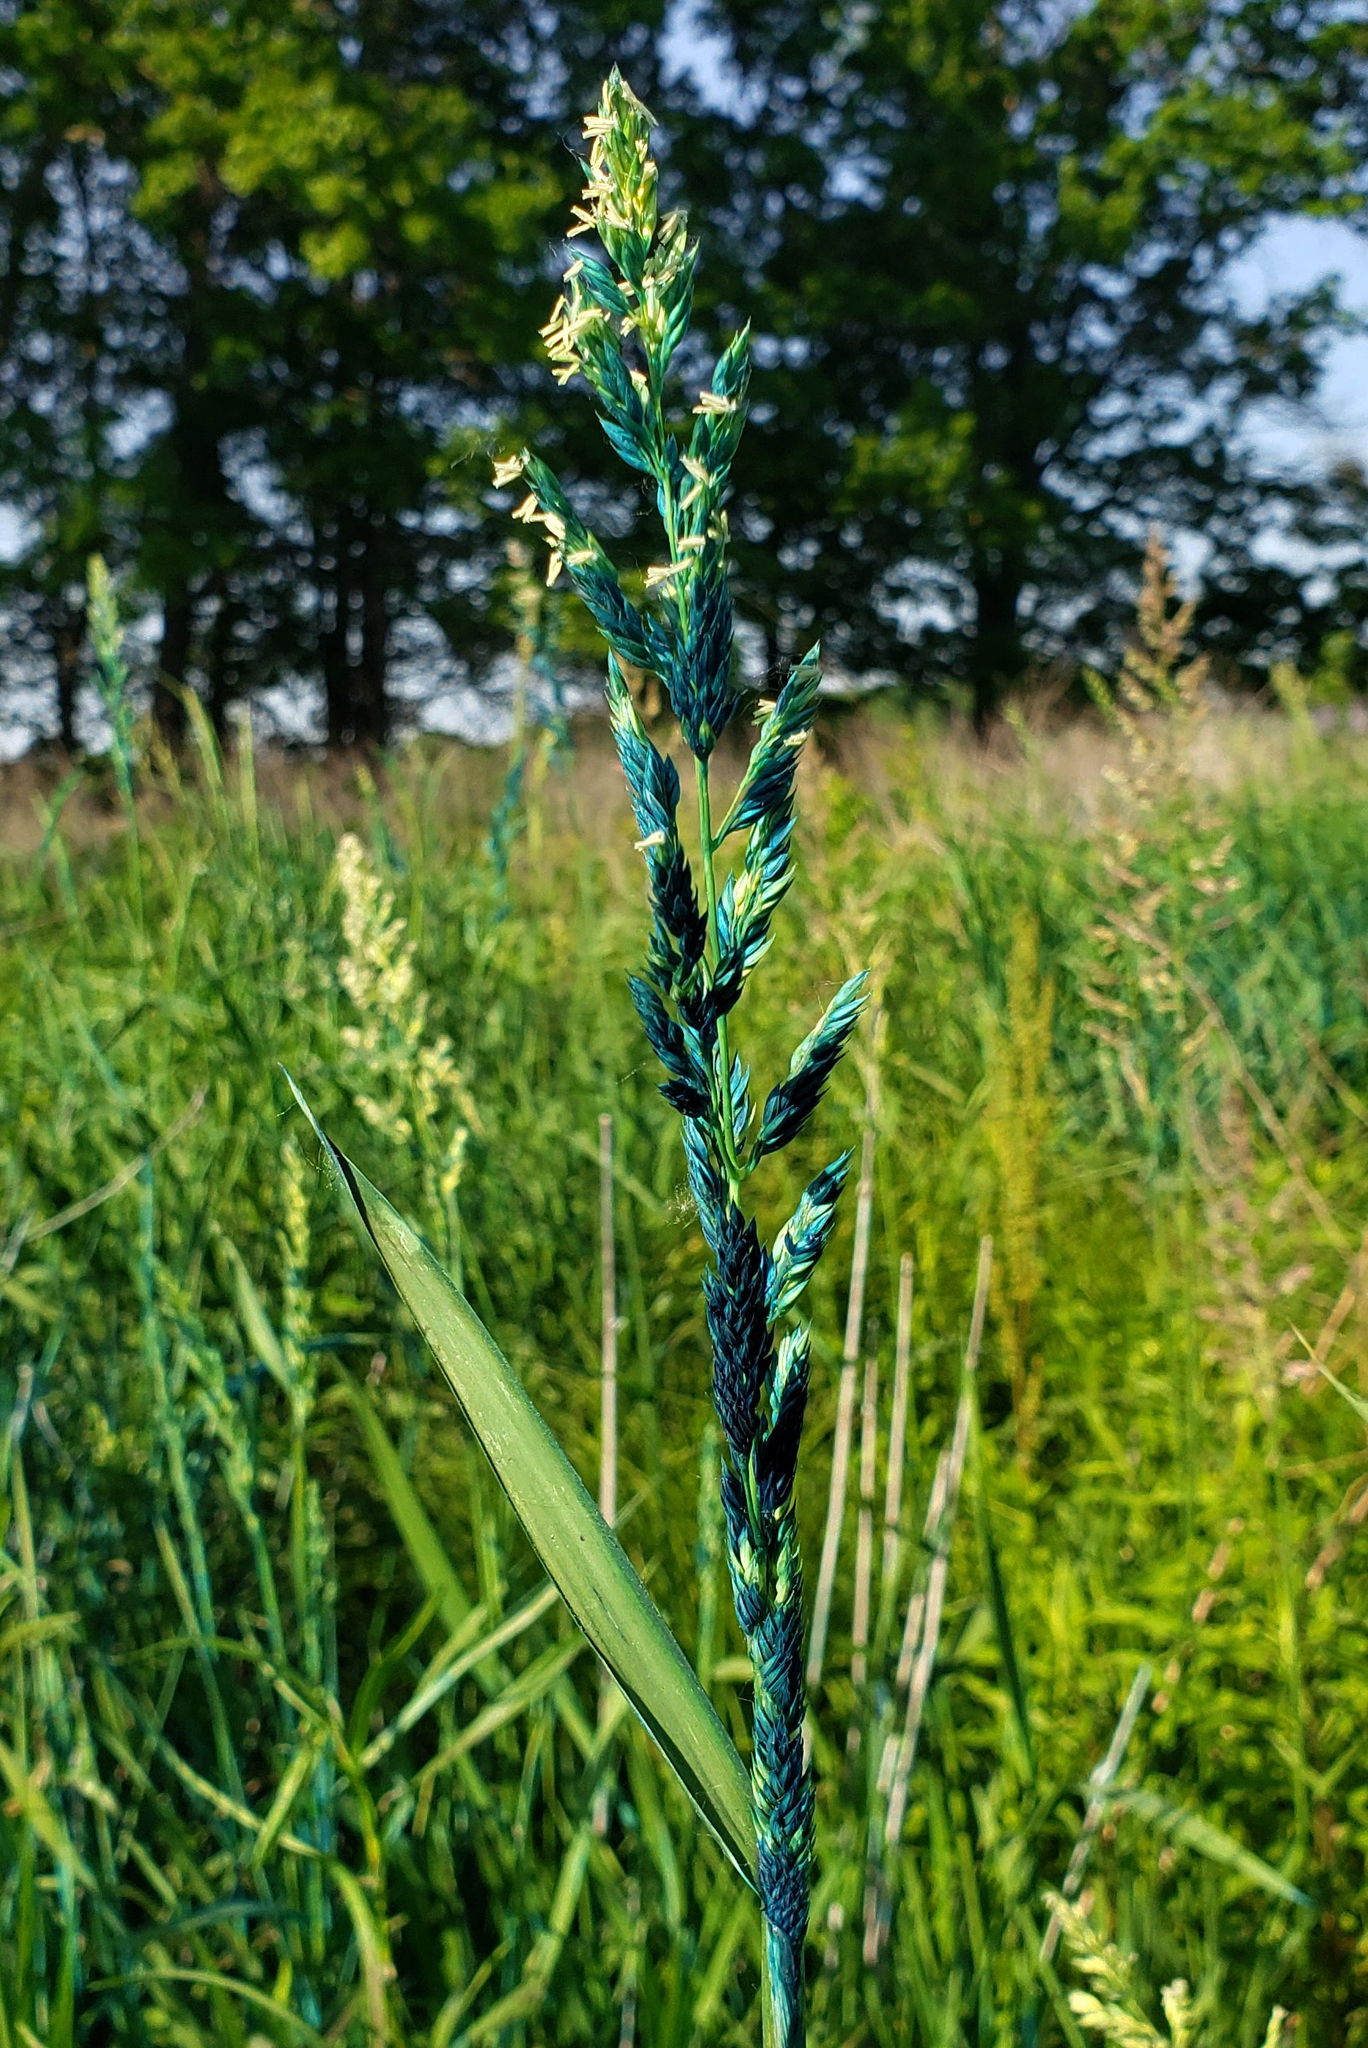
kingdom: Plantae
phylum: Tracheophyta
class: Liliopsida
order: Poales
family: Poaceae
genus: Phalaris
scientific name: Phalaris arundinacea
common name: Reed canary-grass
